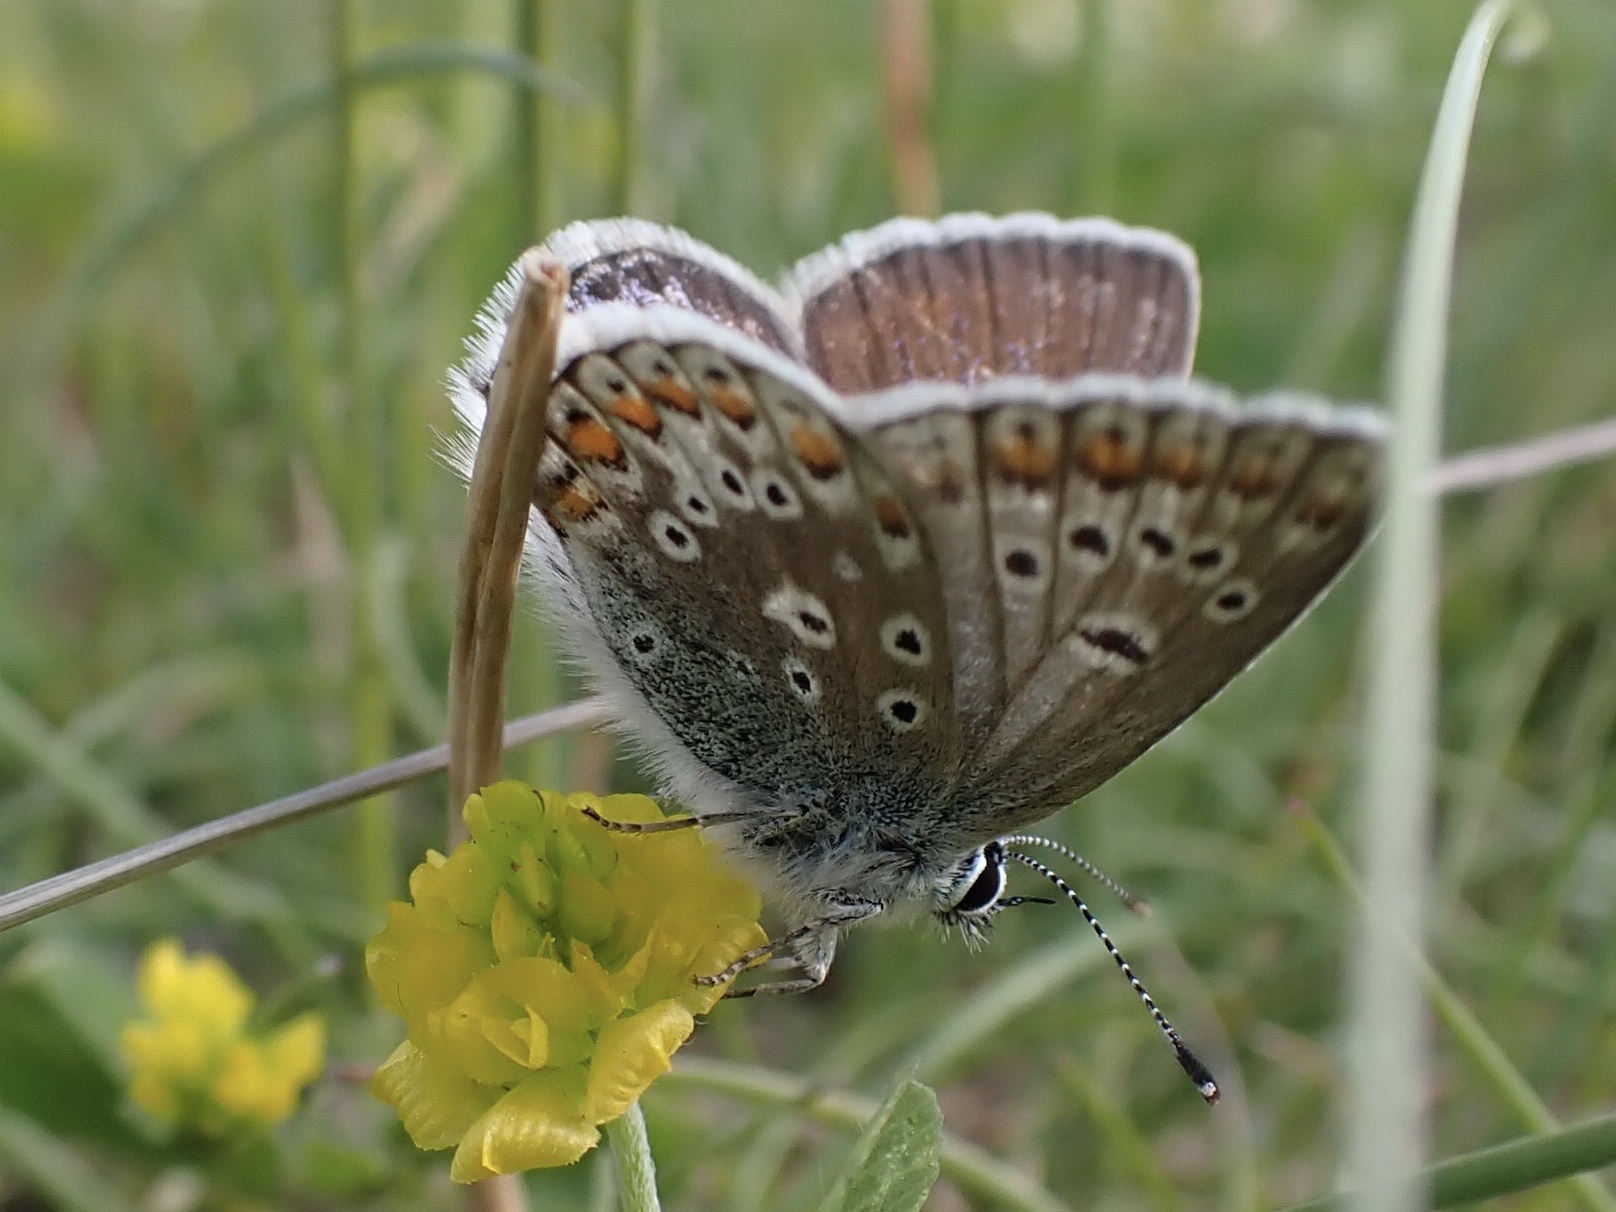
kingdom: Animalia
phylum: Arthropoda
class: Insecta
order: Lepidoptera
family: Lycaenidae
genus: Polyommatus
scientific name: Polyommatus icarus
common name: Common blue
